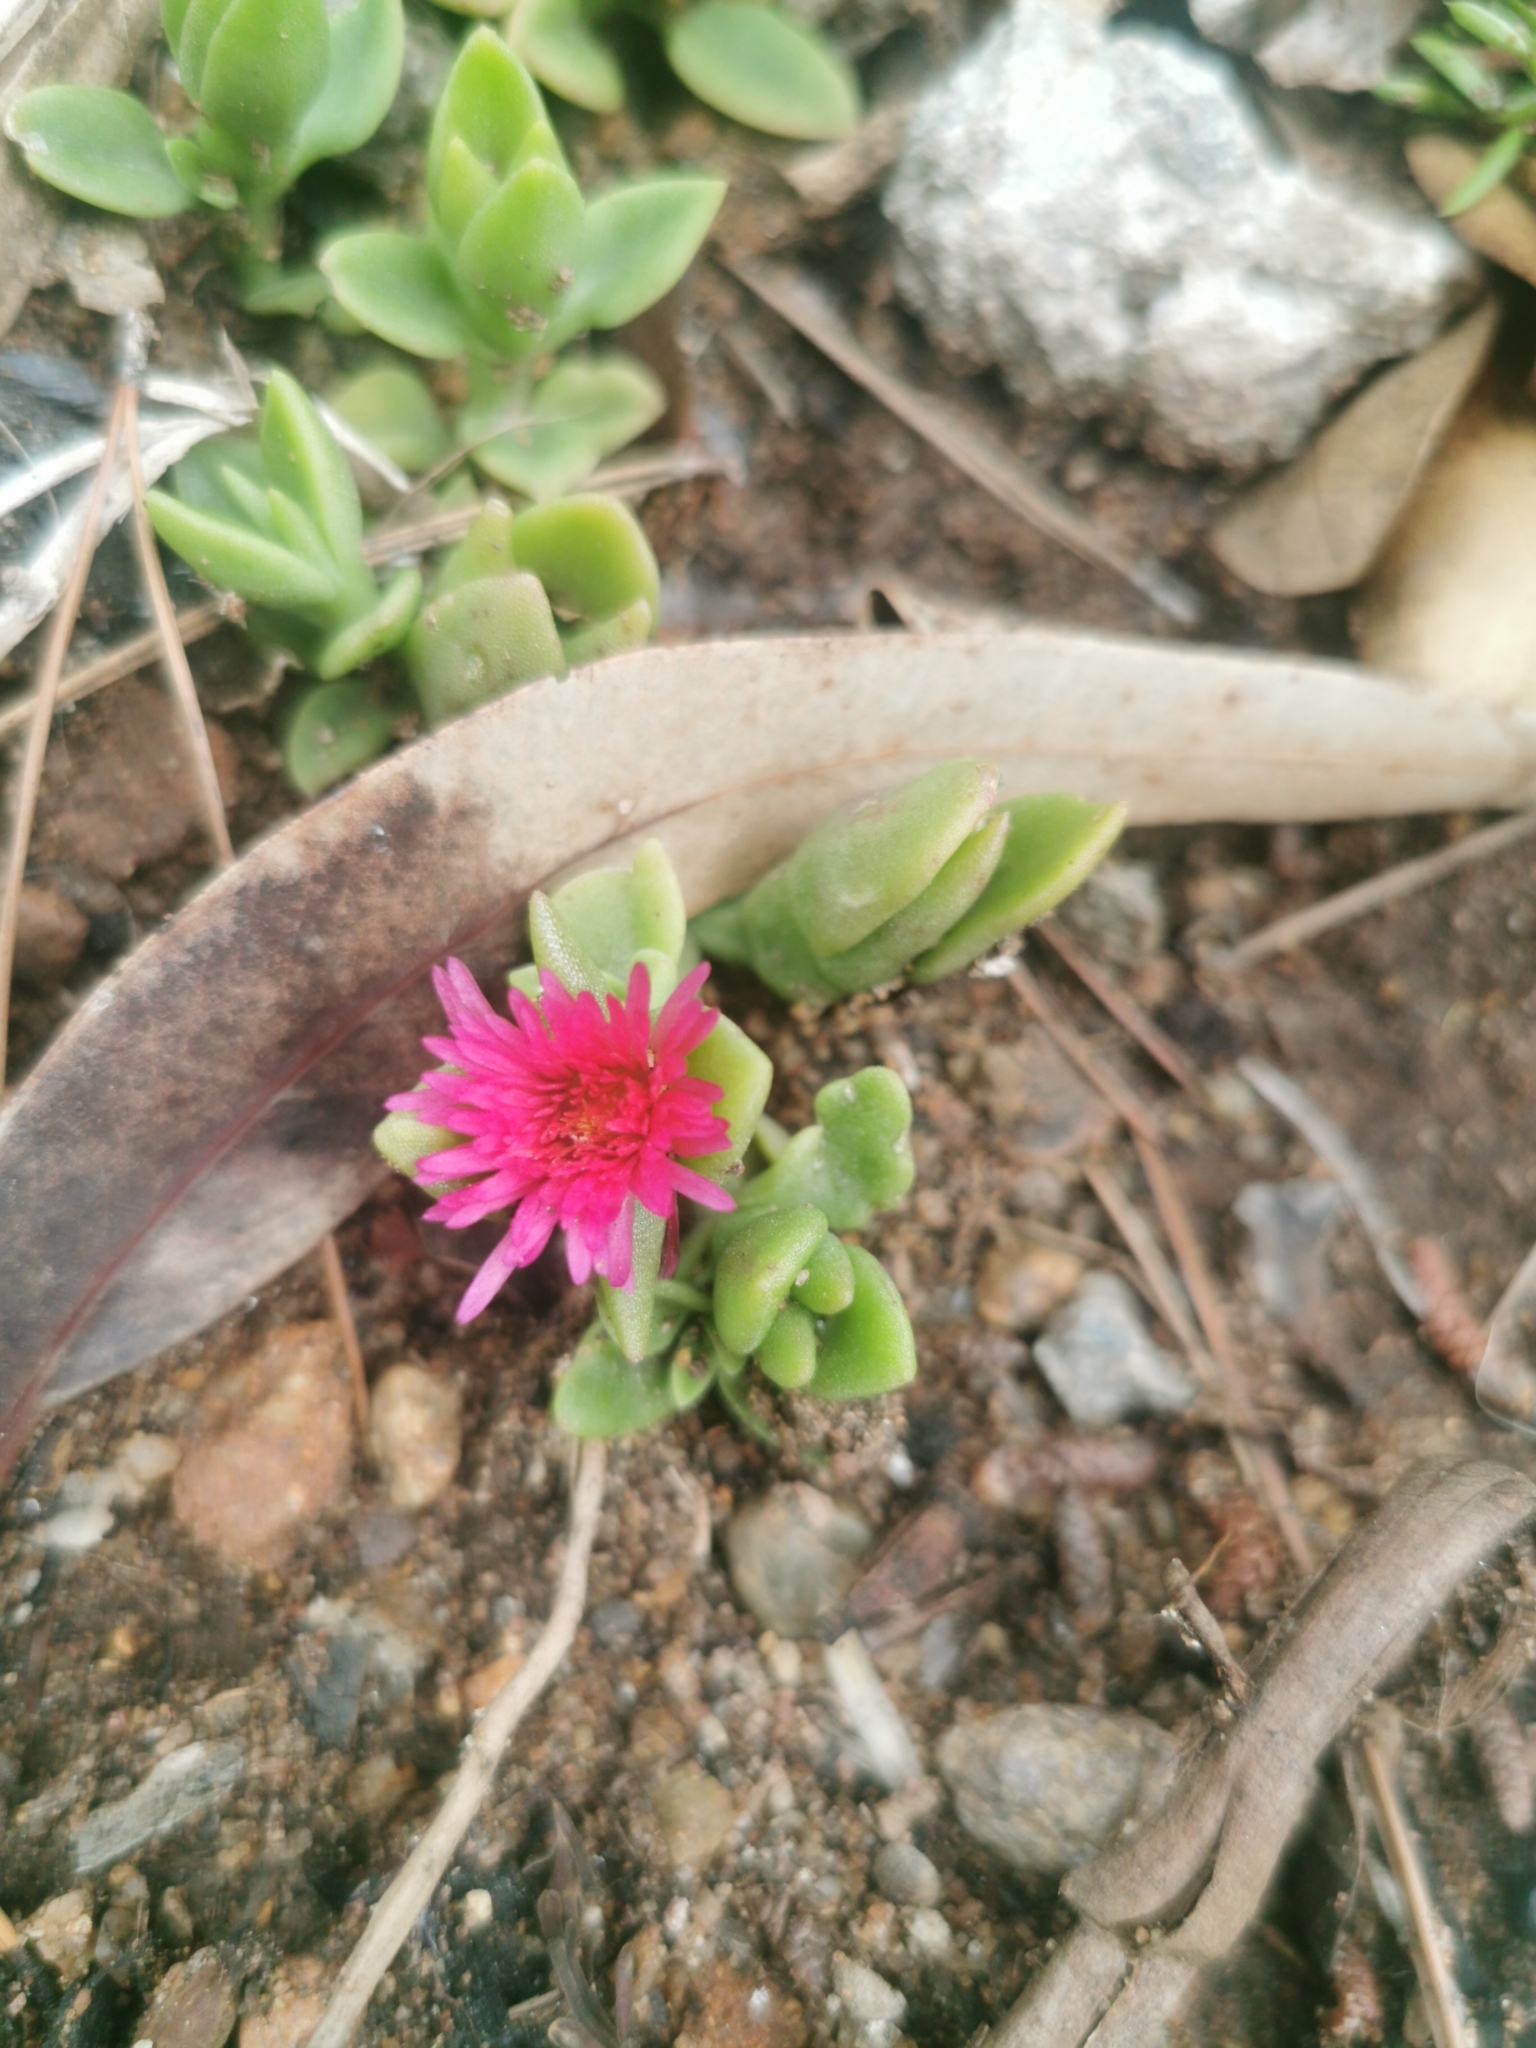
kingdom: Plantae
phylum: Tracheophyta
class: Magnoliopsida
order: Caryophyllales
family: Aizoaceae
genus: Mesembryanthemum
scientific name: Mesembryanthemum cordifolium
